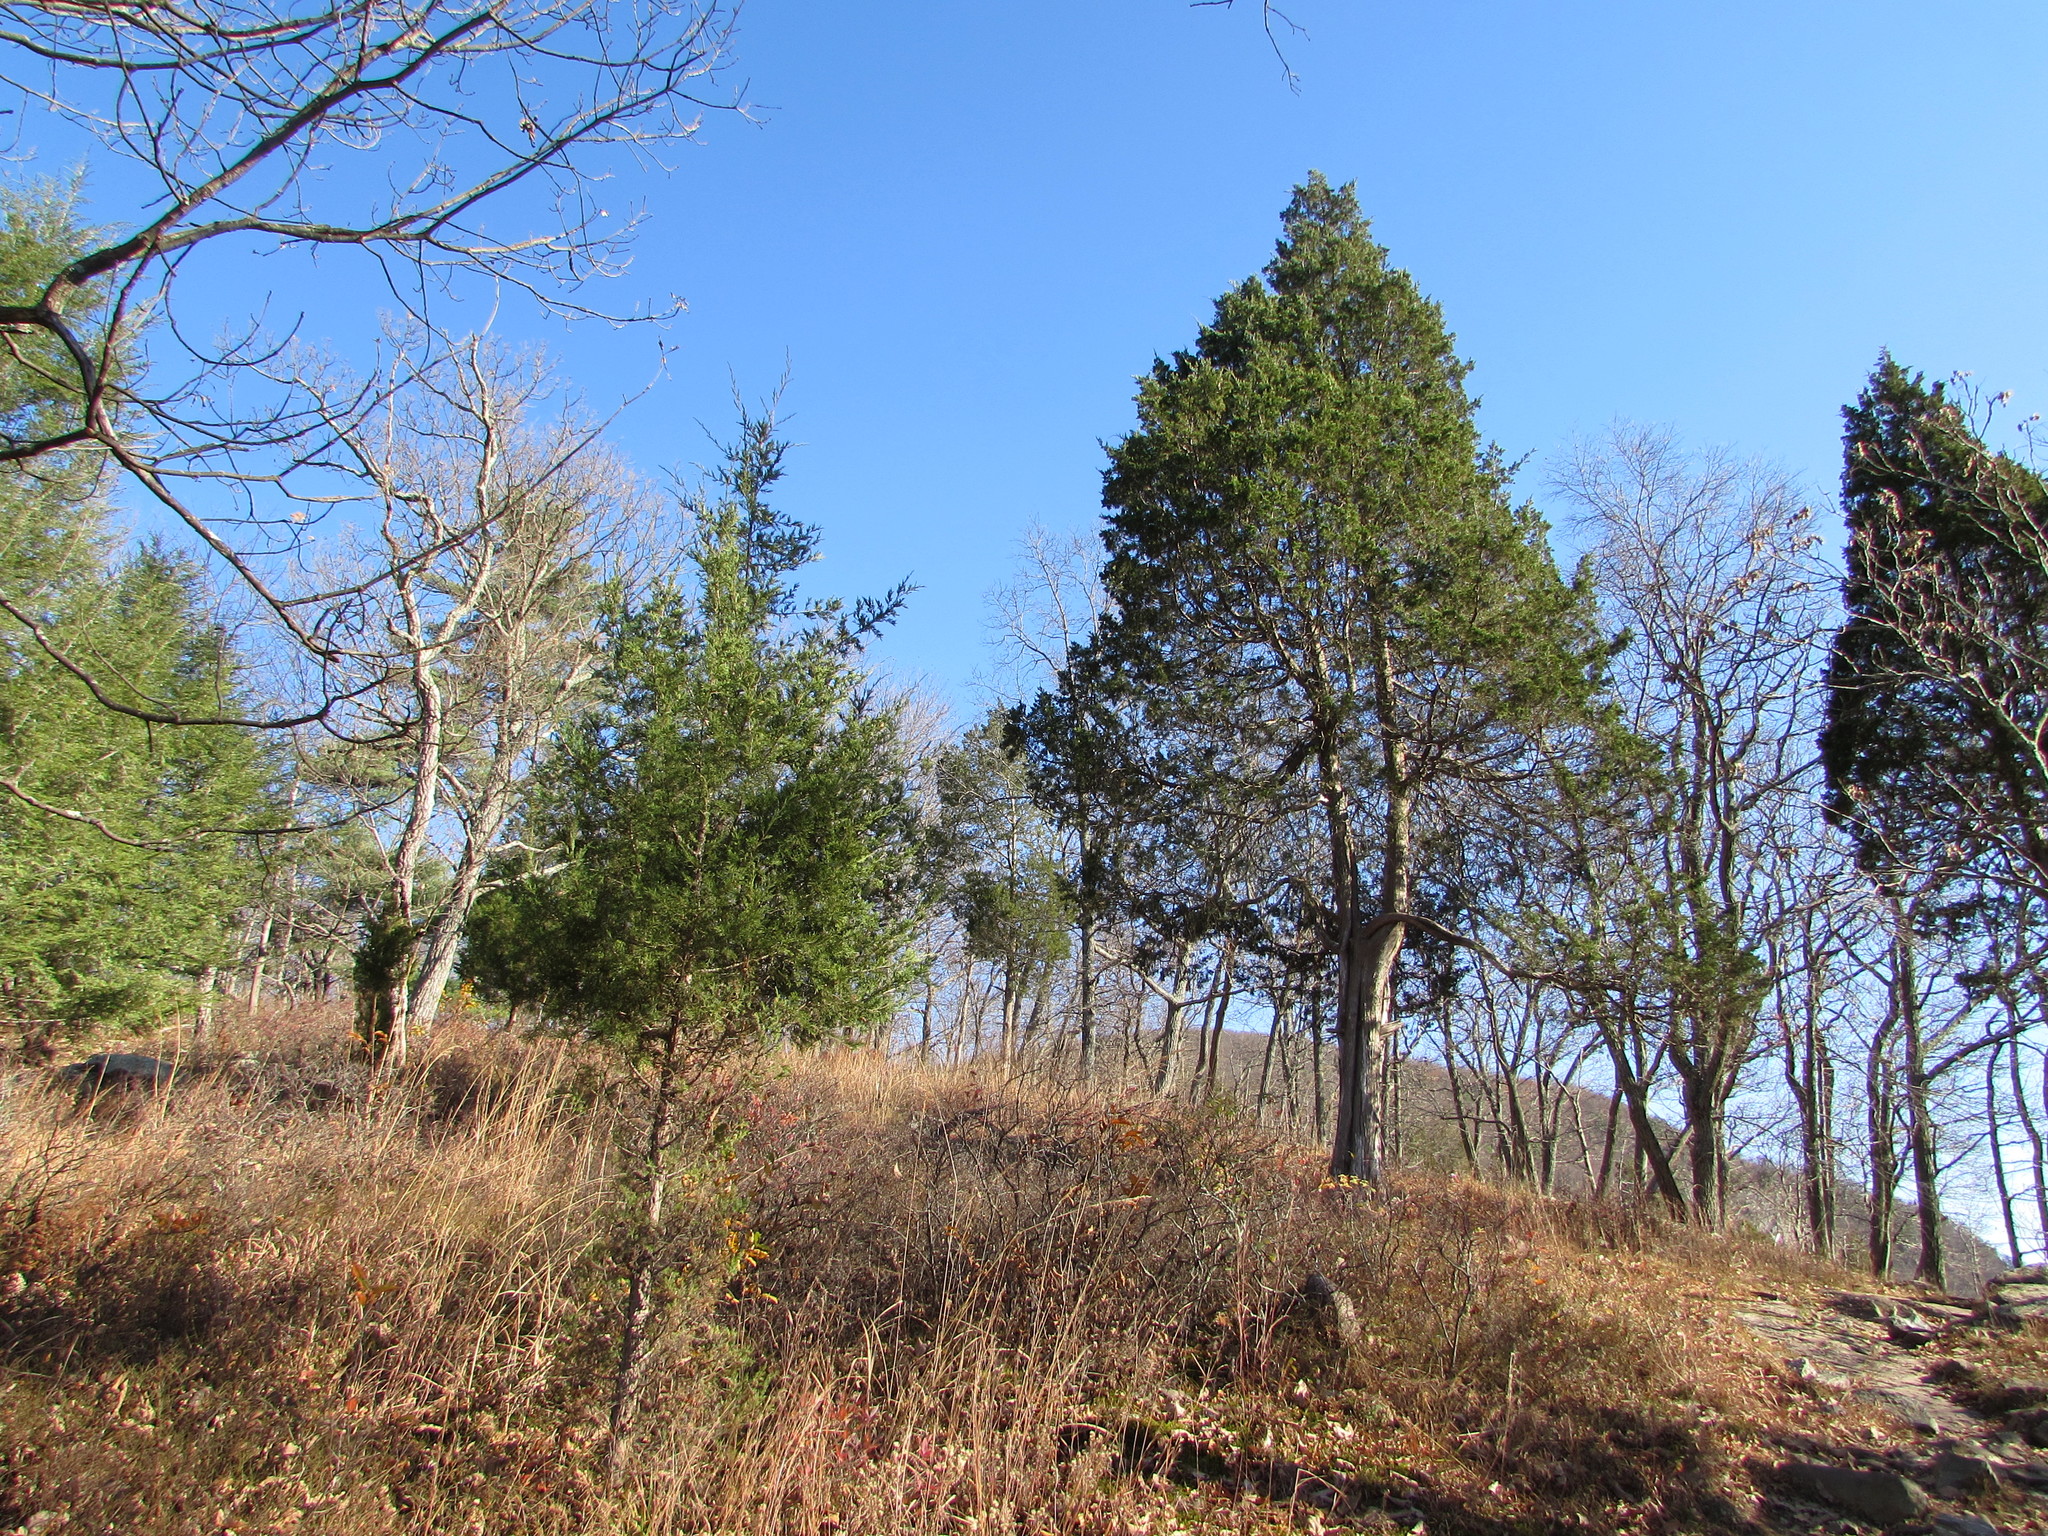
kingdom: Plantae
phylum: Tracheophyta
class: Pinopsida
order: Pinales
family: Cupressaceae
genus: Juniperus
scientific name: Juniperus virginiana
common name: Red juniper
